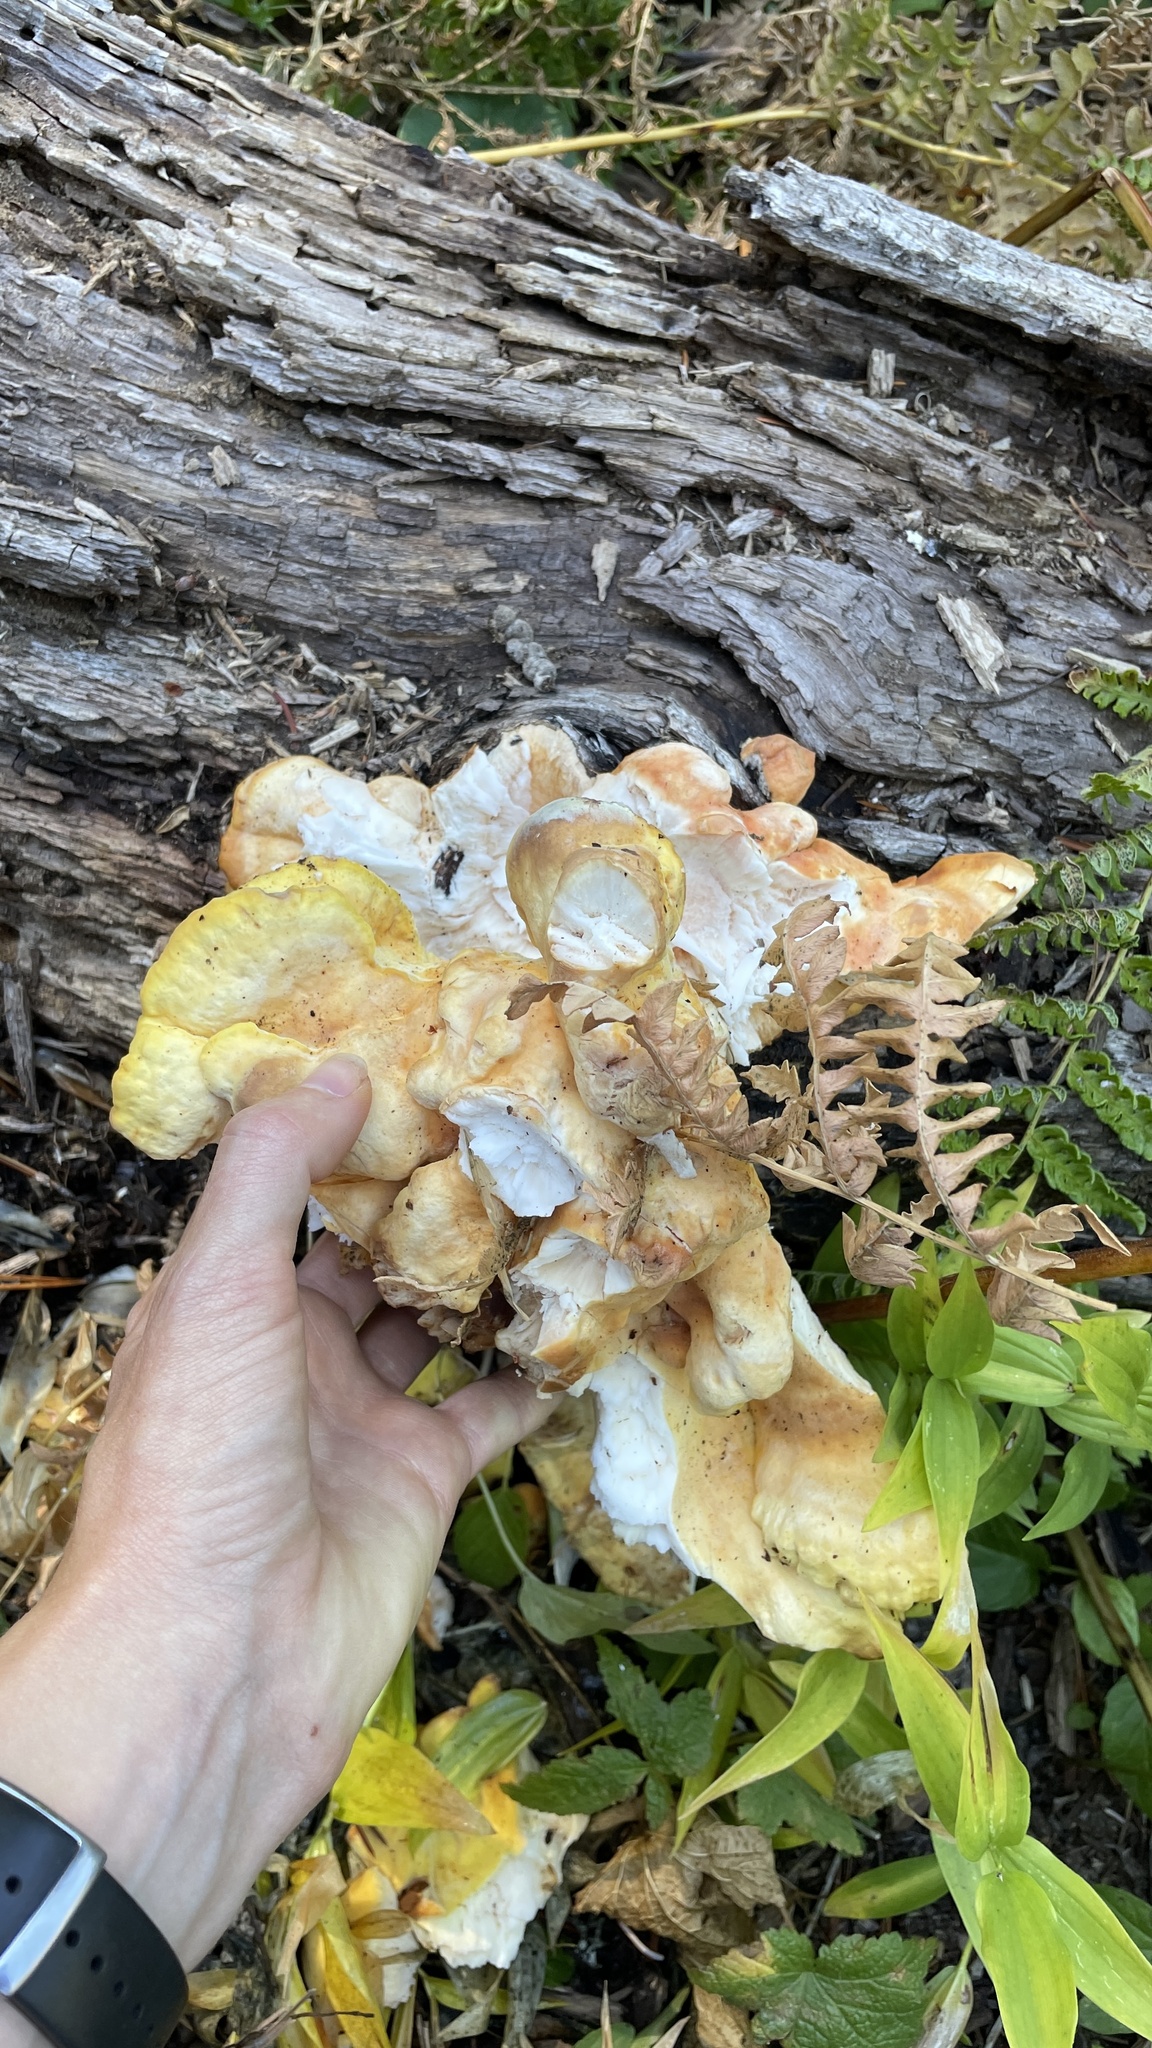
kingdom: Fungi
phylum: Basidiomycota
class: Agaricomycetes
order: Polyporales
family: Laetiporaceae
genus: Laetiporus
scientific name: Laetiporus conifericola
